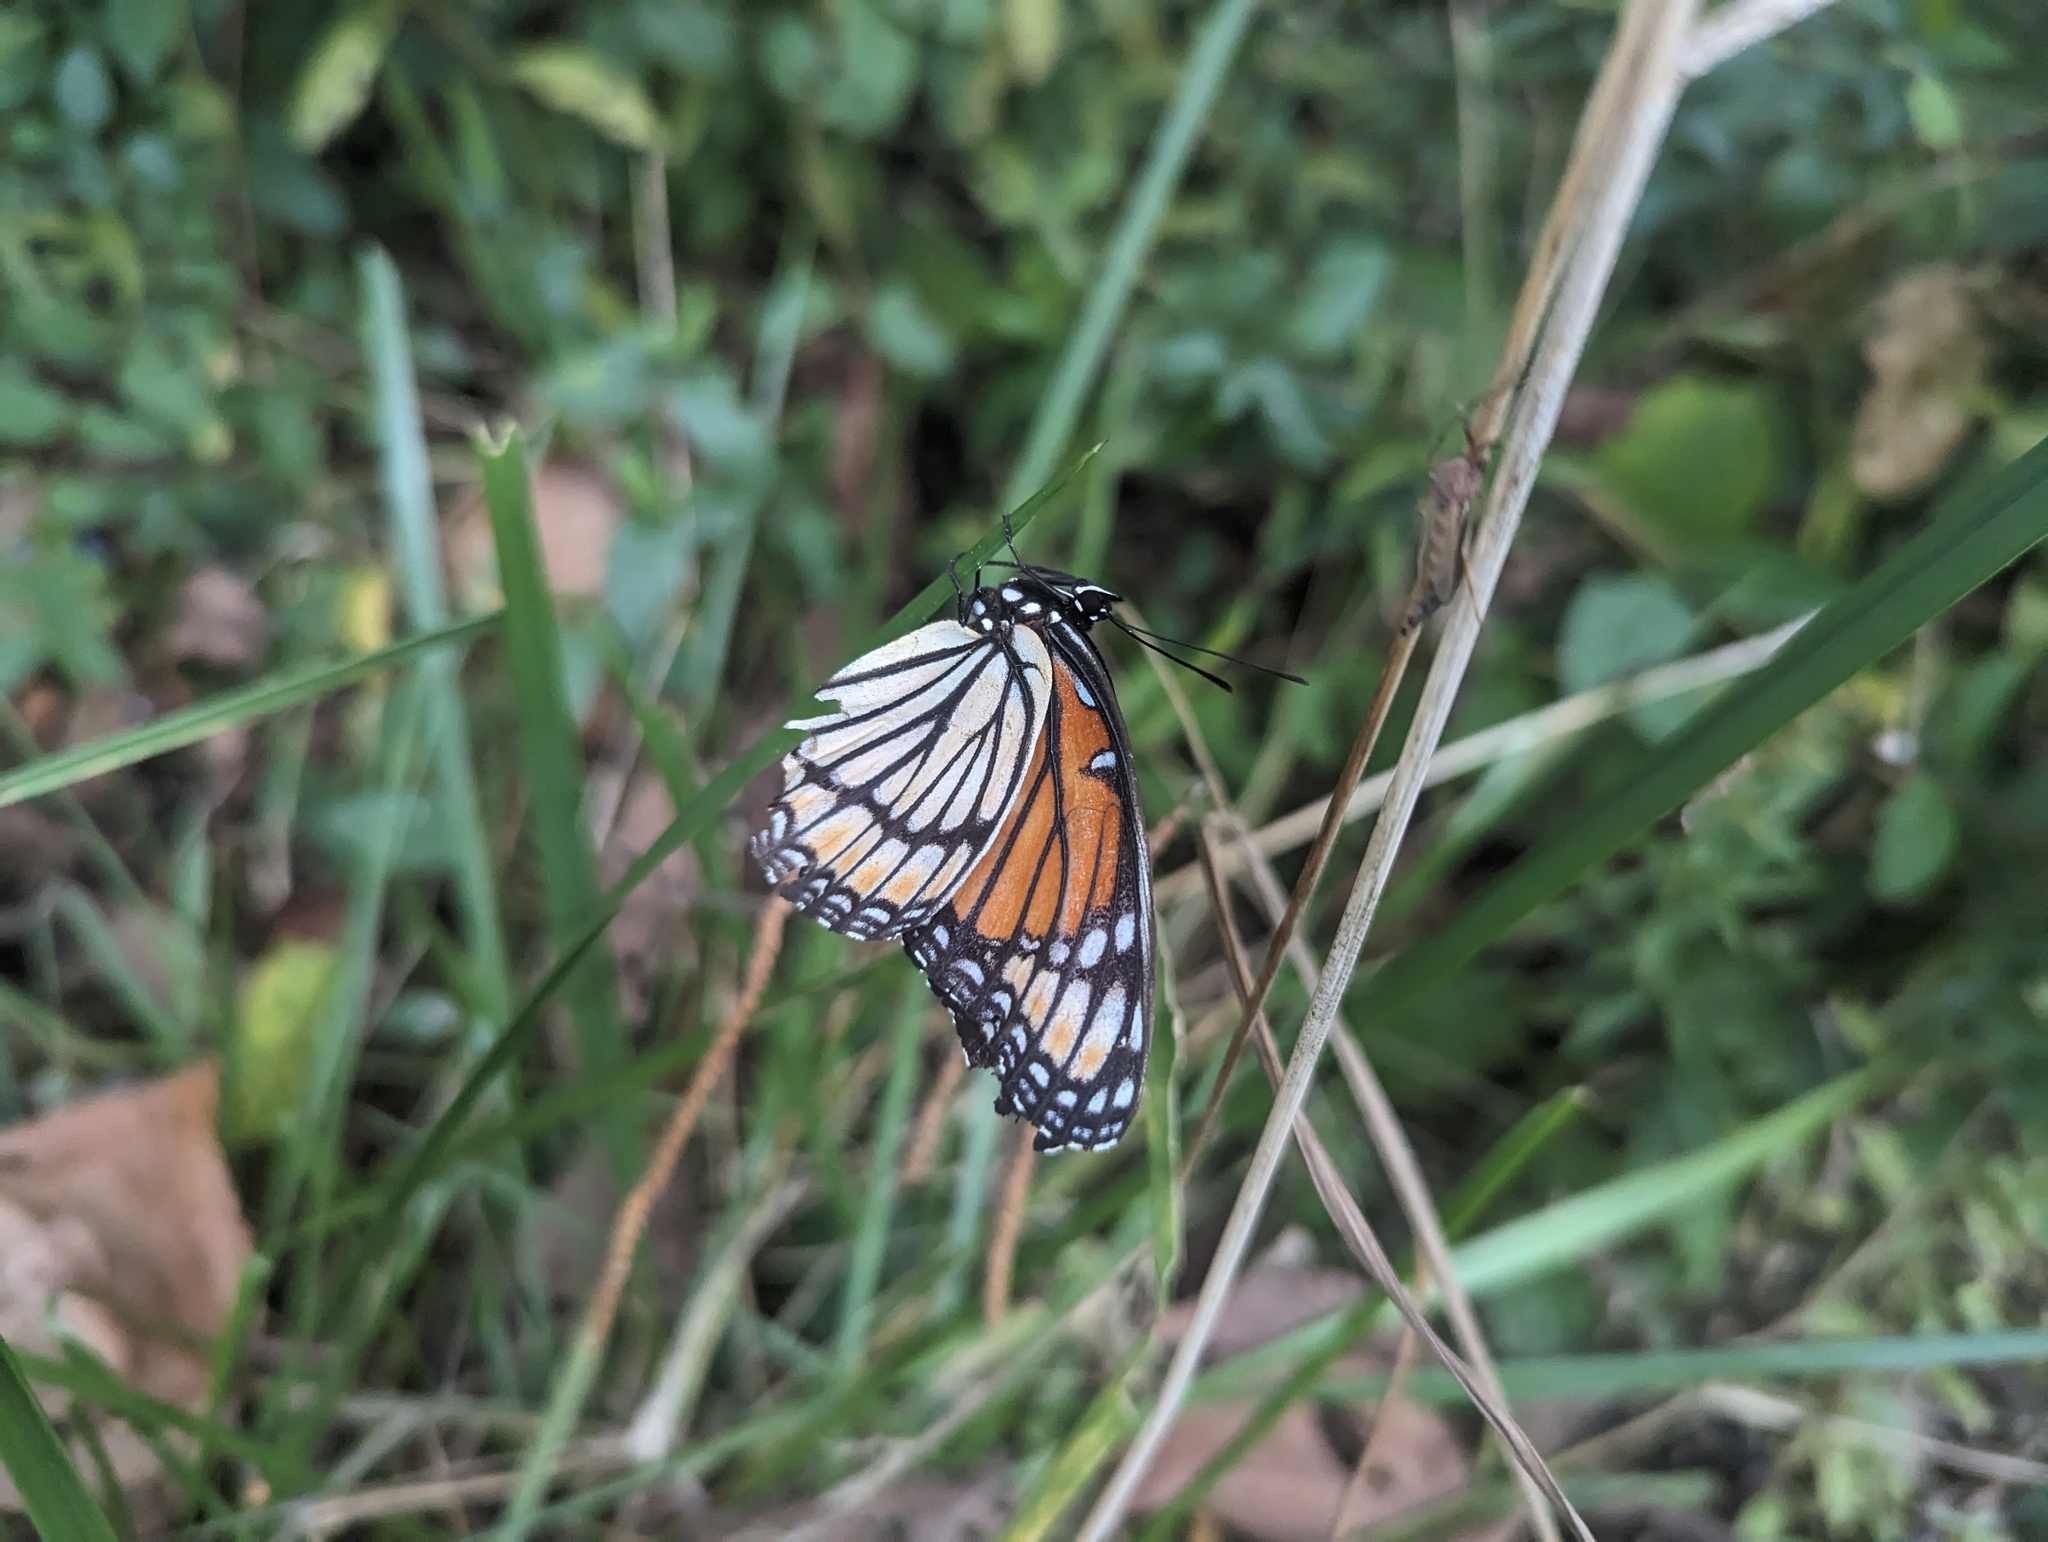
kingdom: Animalia
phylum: Arthropoda
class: Insecta
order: Lepidoptera
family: Nymphalidae
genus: Limenitis
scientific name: Limenitis archippus
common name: Viceroy
